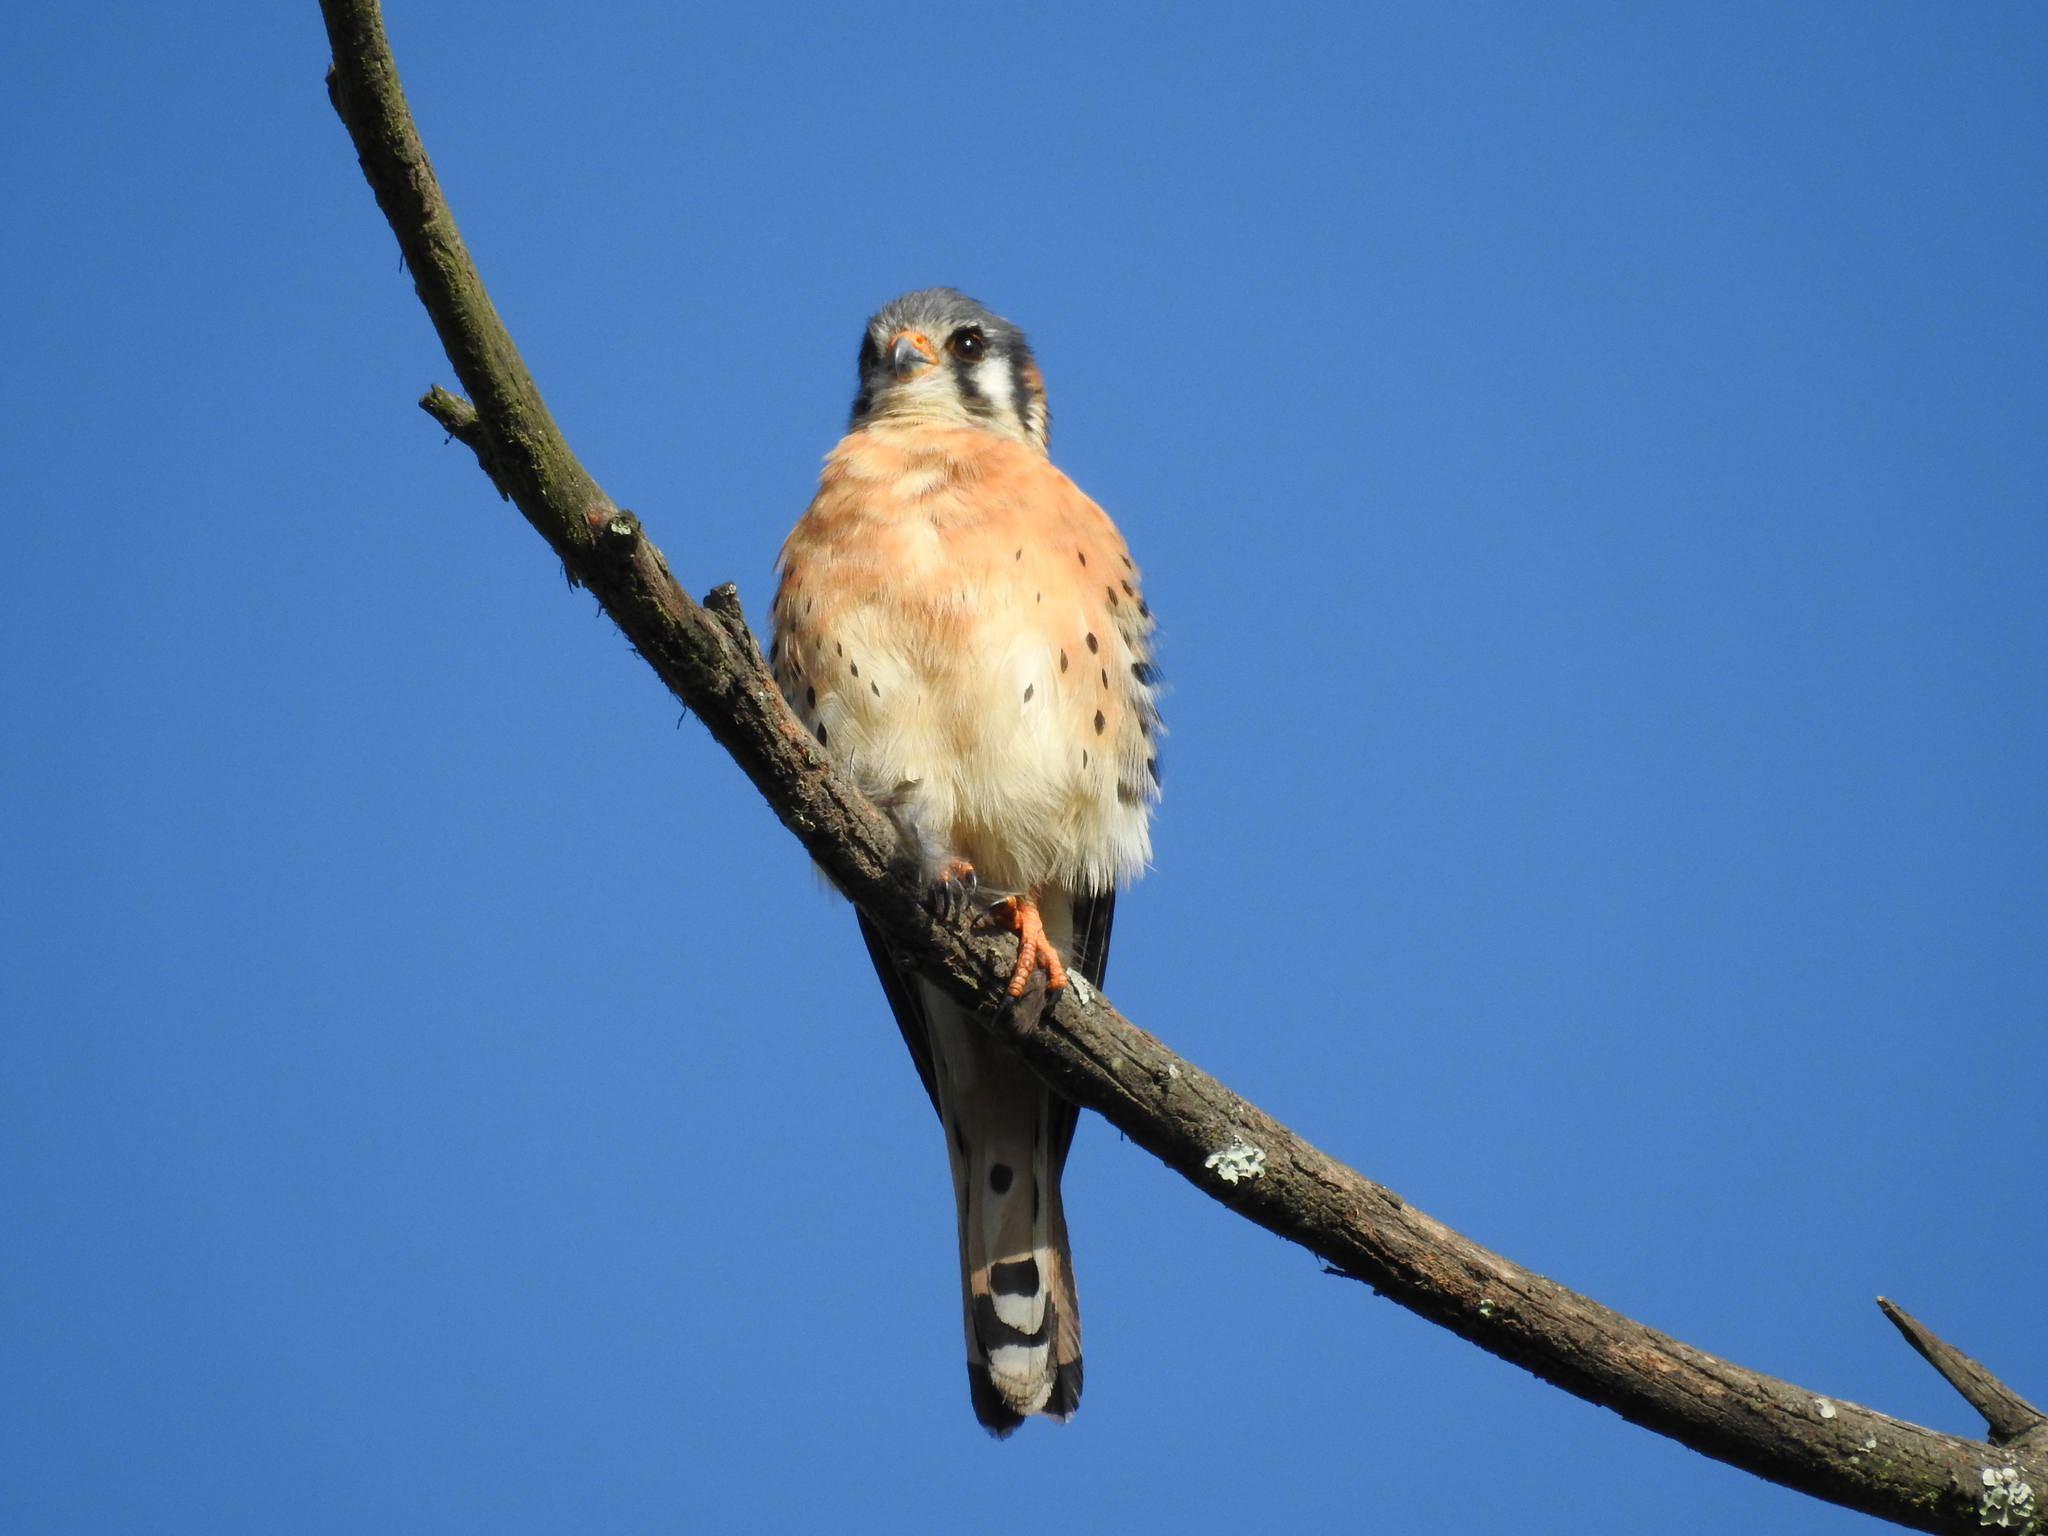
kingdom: Animalia
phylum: Chordata
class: Aves
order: Falconiformes
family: Falconidae
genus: Falco
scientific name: Falco sparverius
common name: American kestrel
